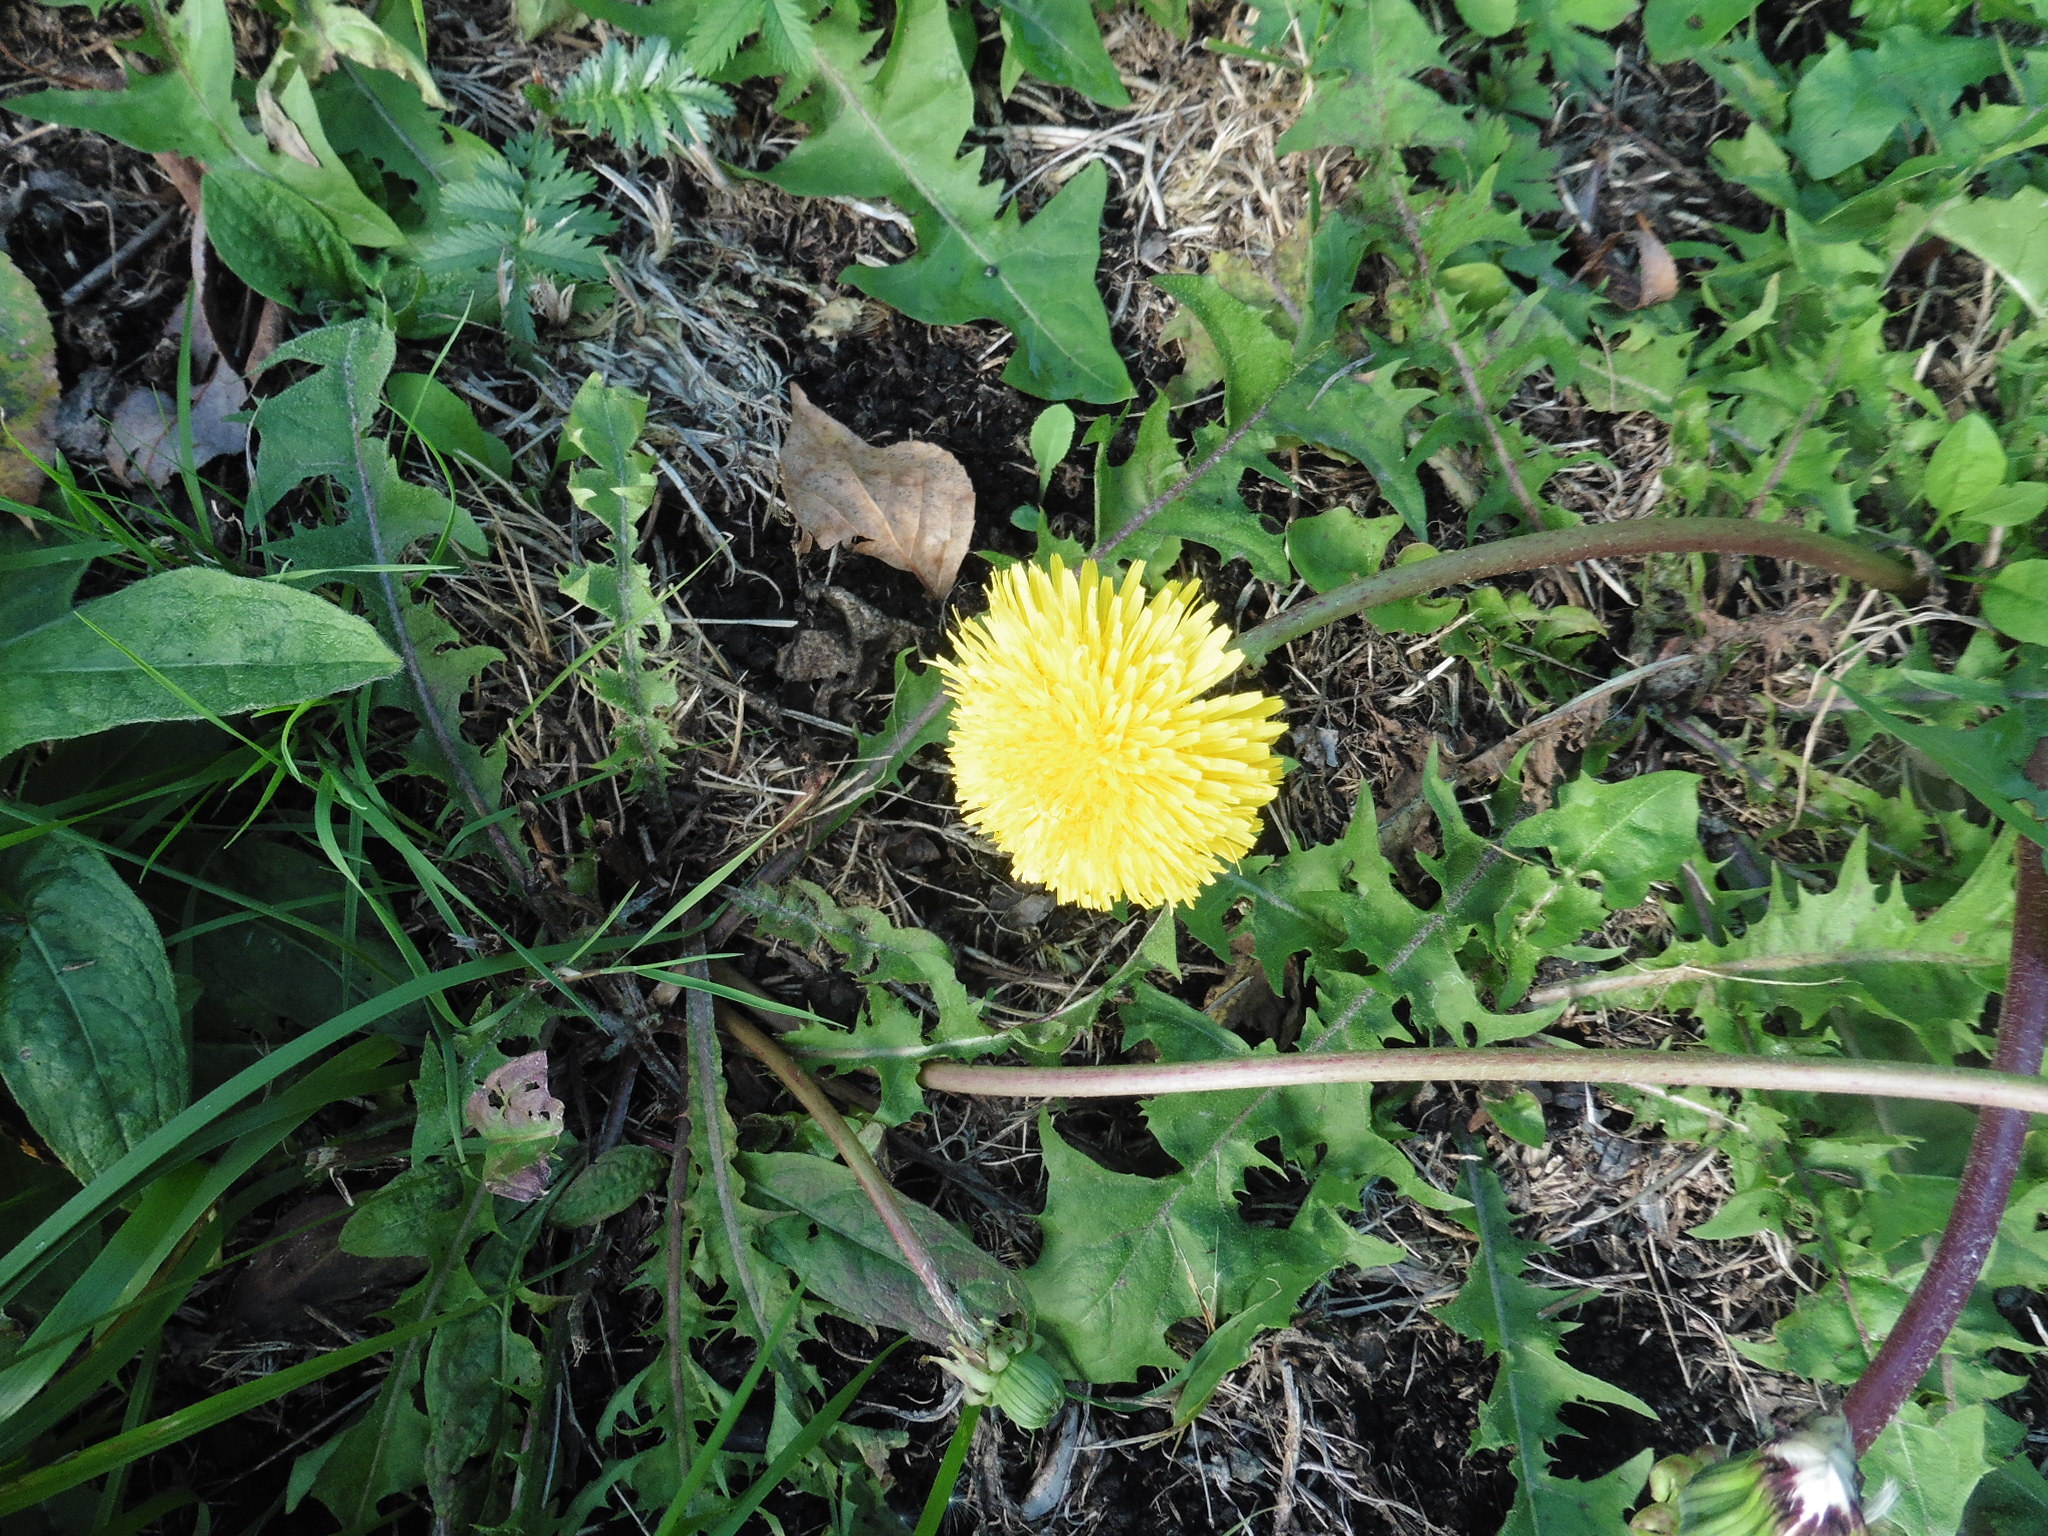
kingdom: Plantae
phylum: Tracheophyta
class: Magnoliopsida
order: Asterales
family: Asteraceae
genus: Taraxacum
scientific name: Taraxacum officinale
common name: Common dandelion
